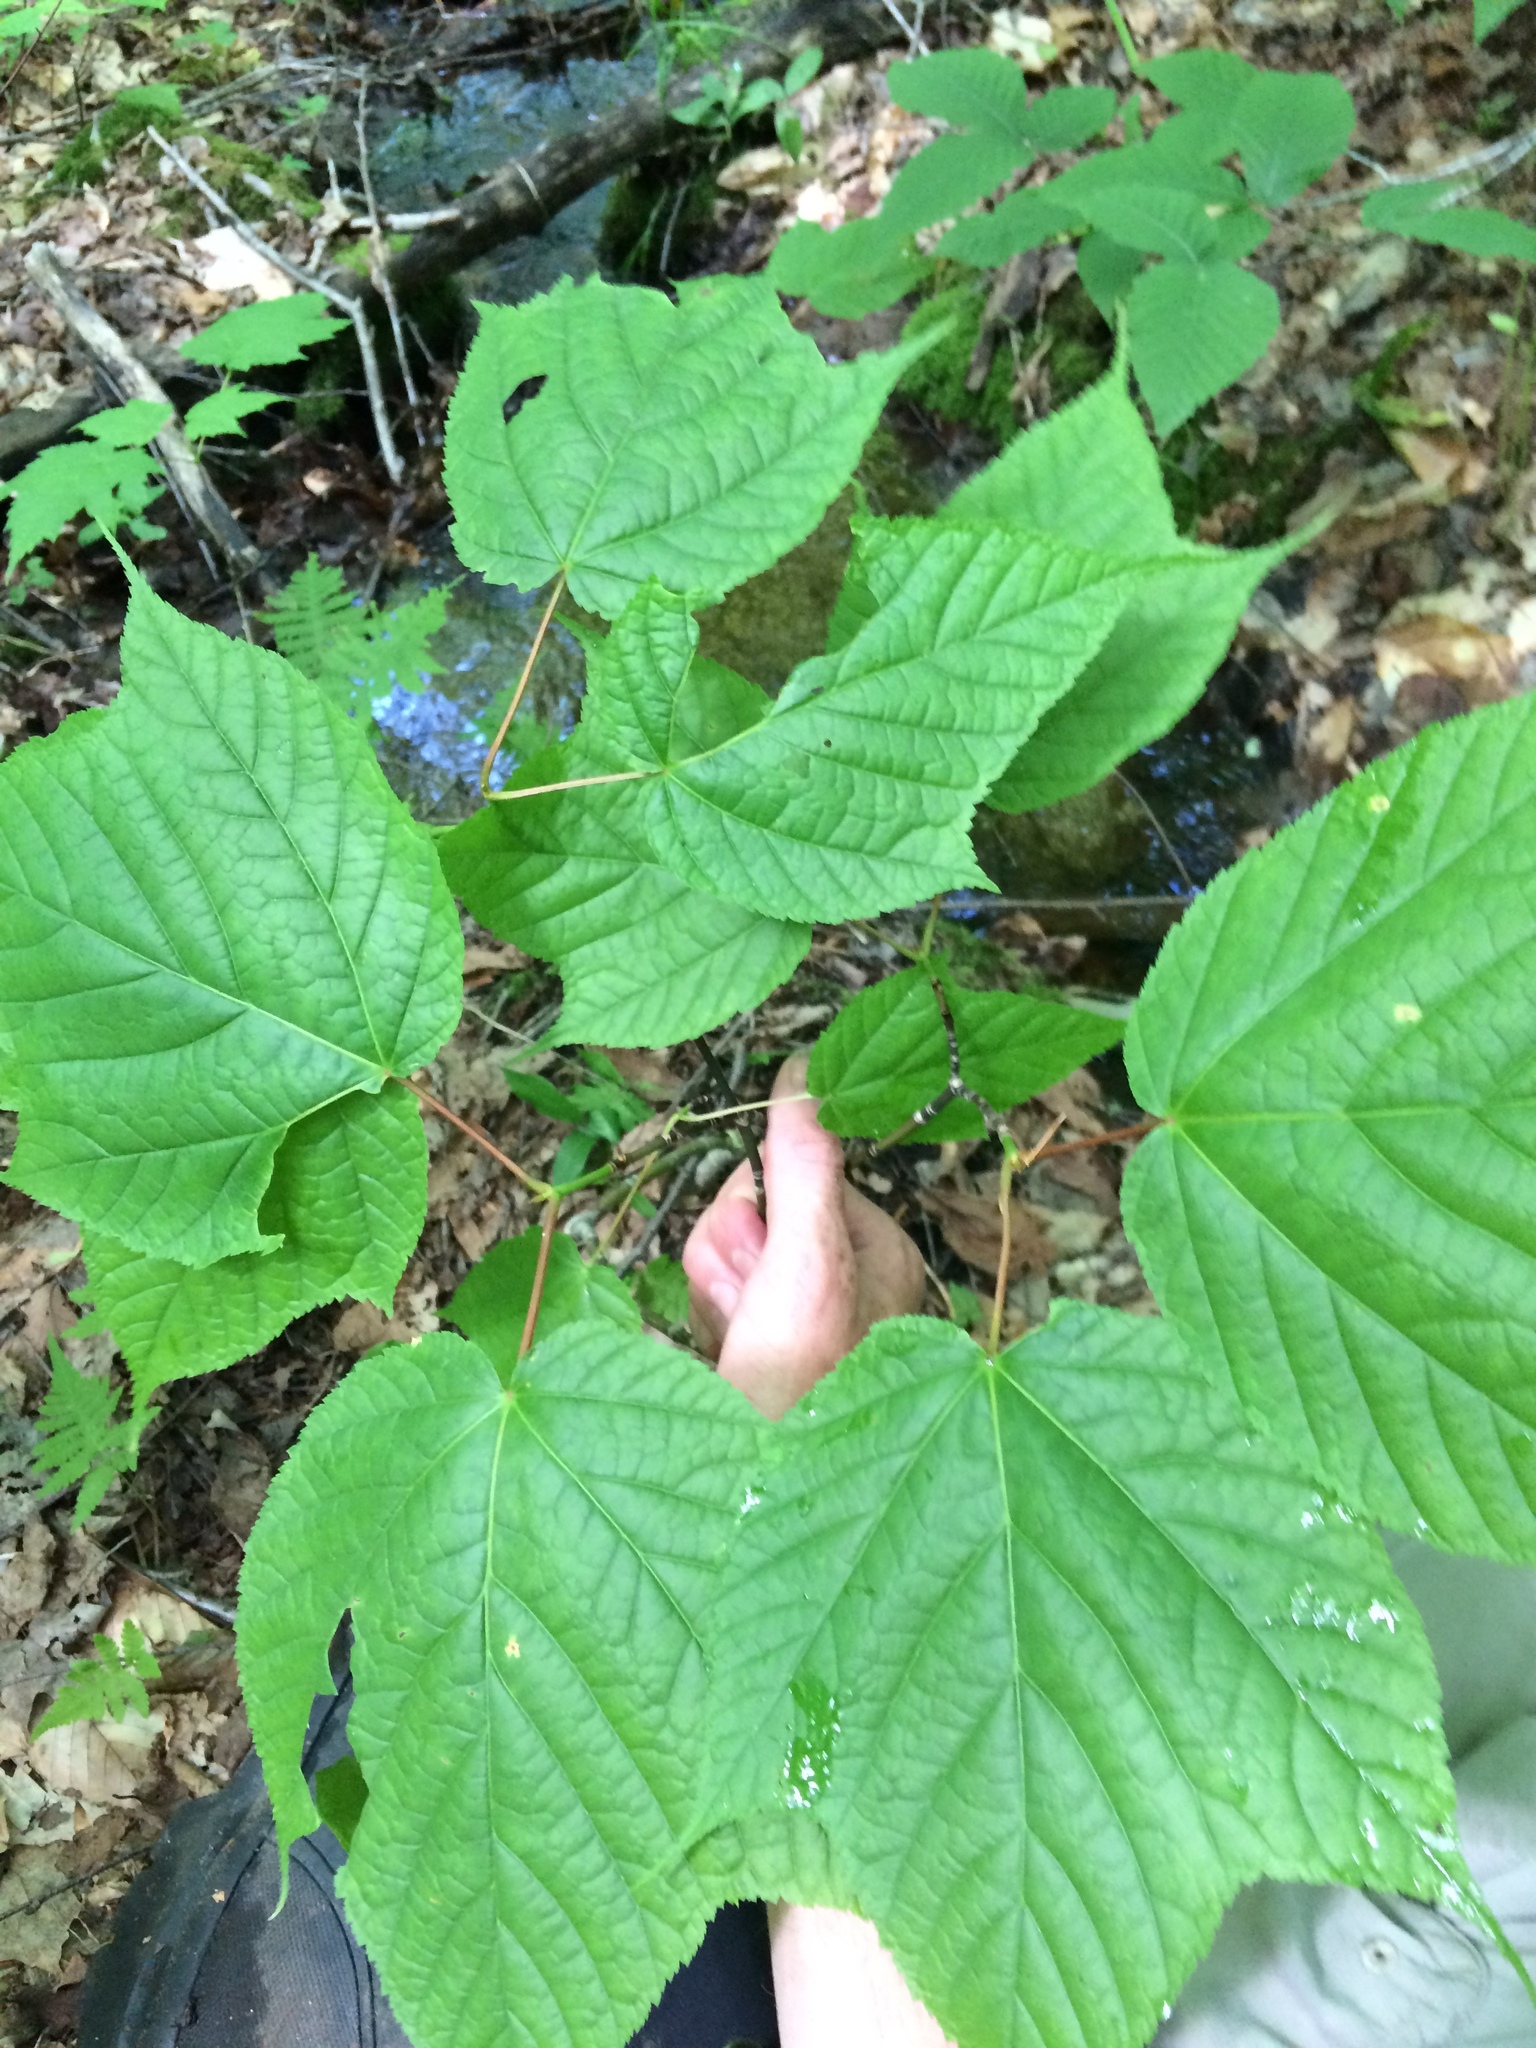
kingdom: Plantae
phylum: Tracheophyta
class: Magnoliopsida
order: Sapindales
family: Sapindaceae
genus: Acer
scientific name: Acer pensylvanicum
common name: Moosewood
